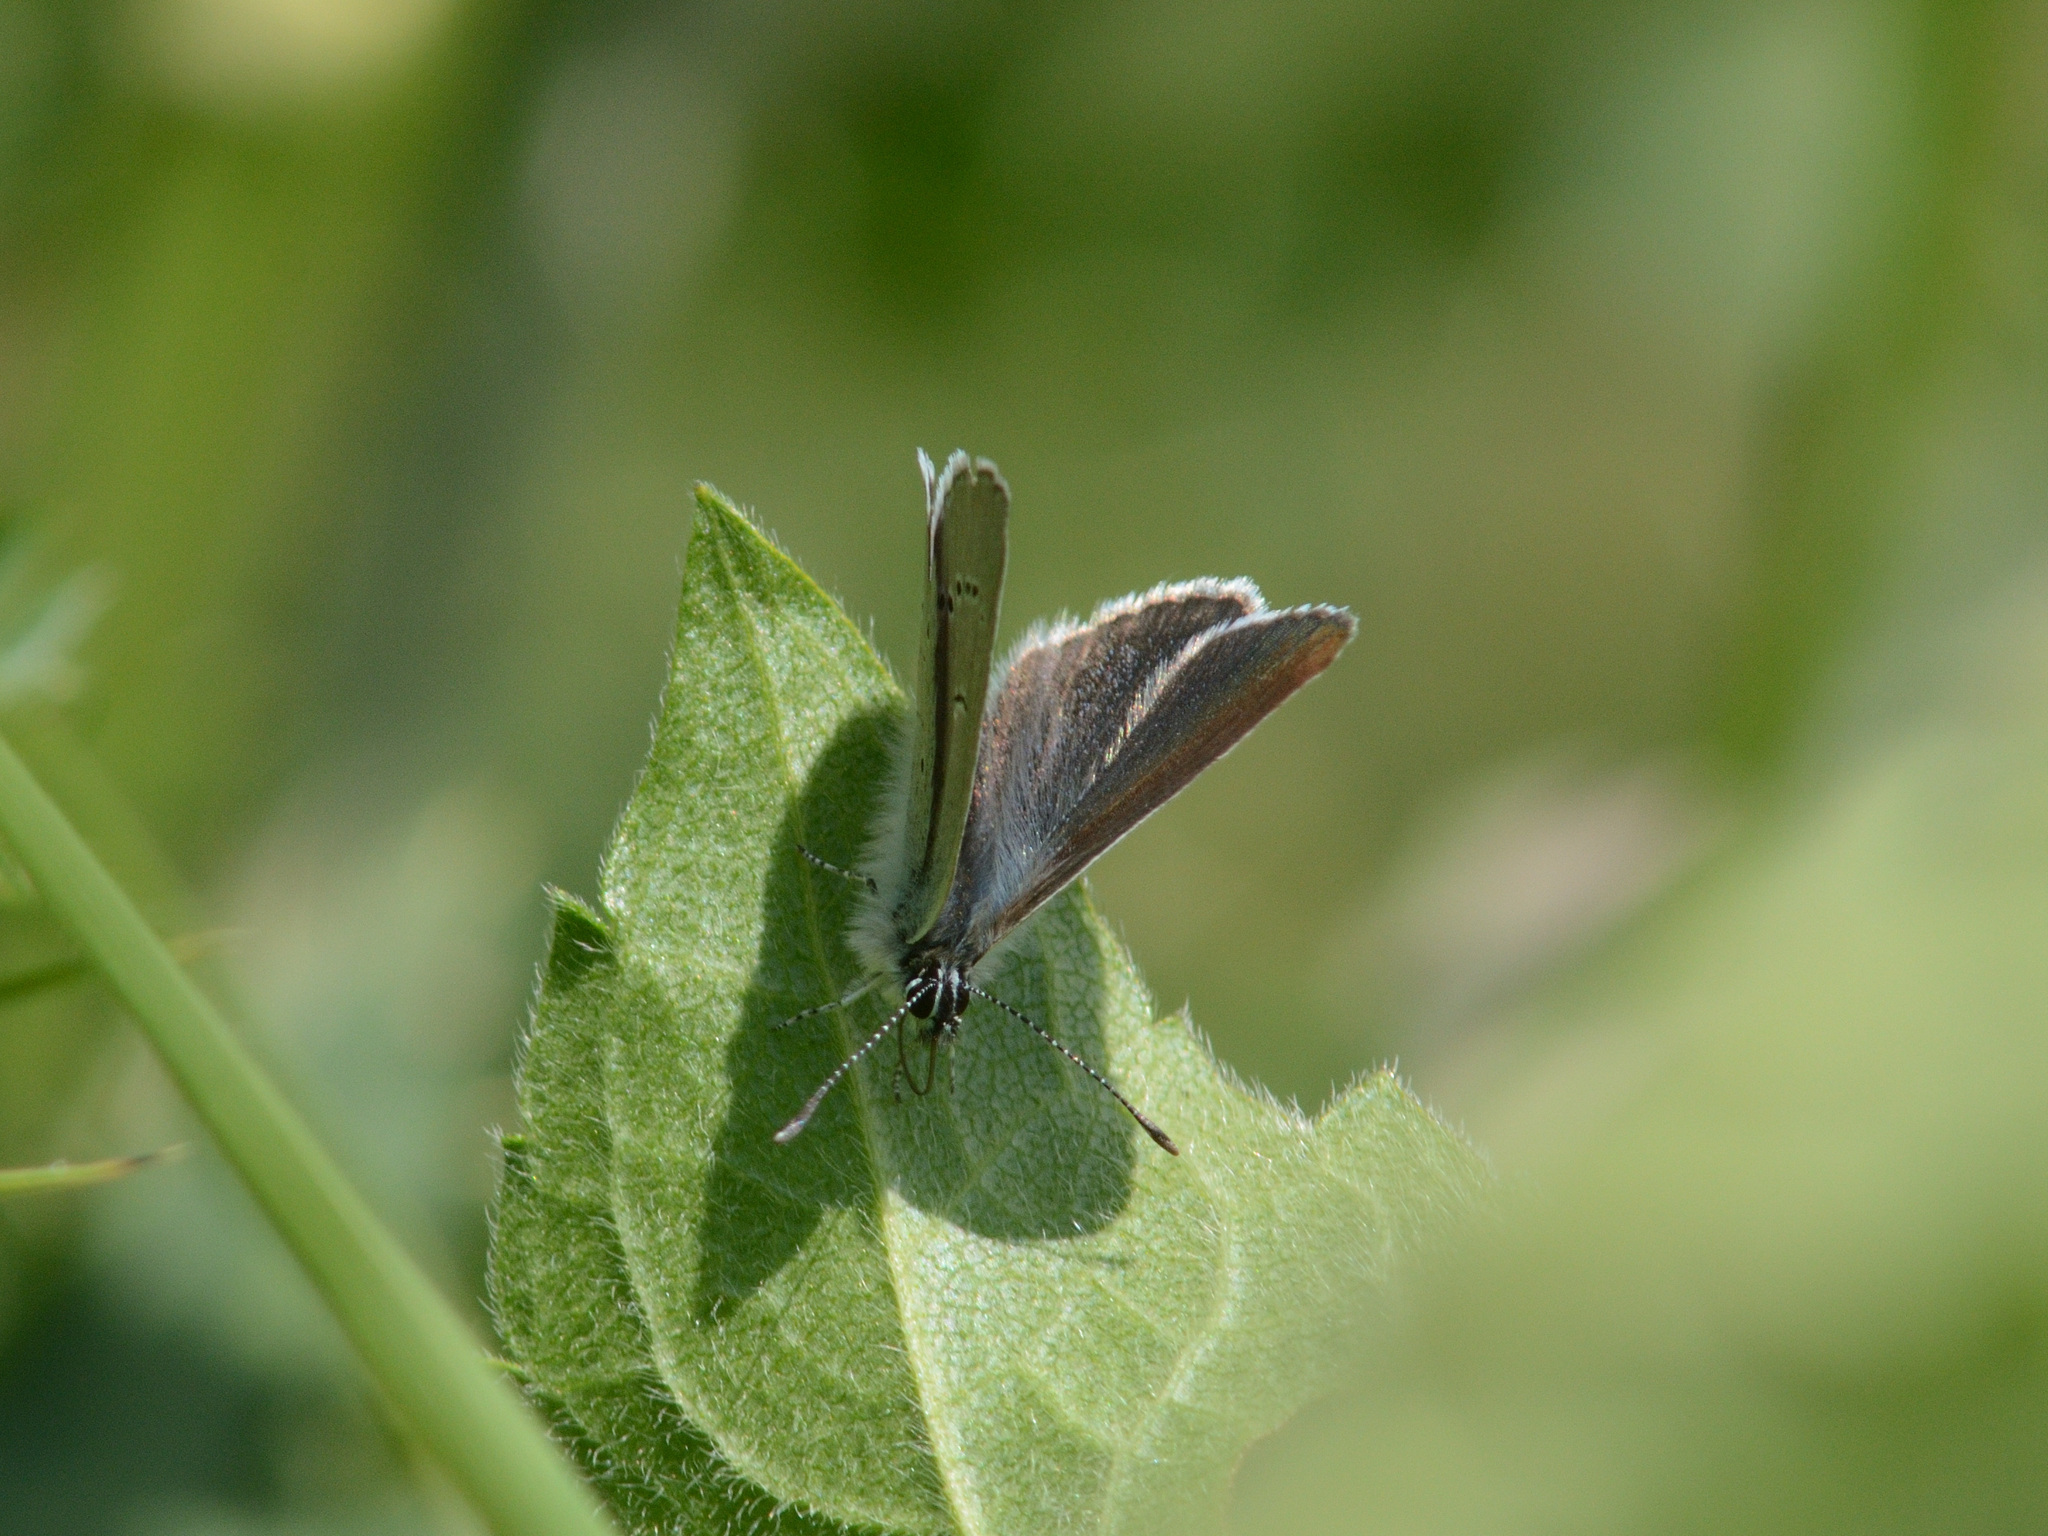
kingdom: Animalia
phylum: Arthropoda
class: Insecta
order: Lepidoptera
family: Lycaenidae
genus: Cupido
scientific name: Cupido minimus
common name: Small blue
